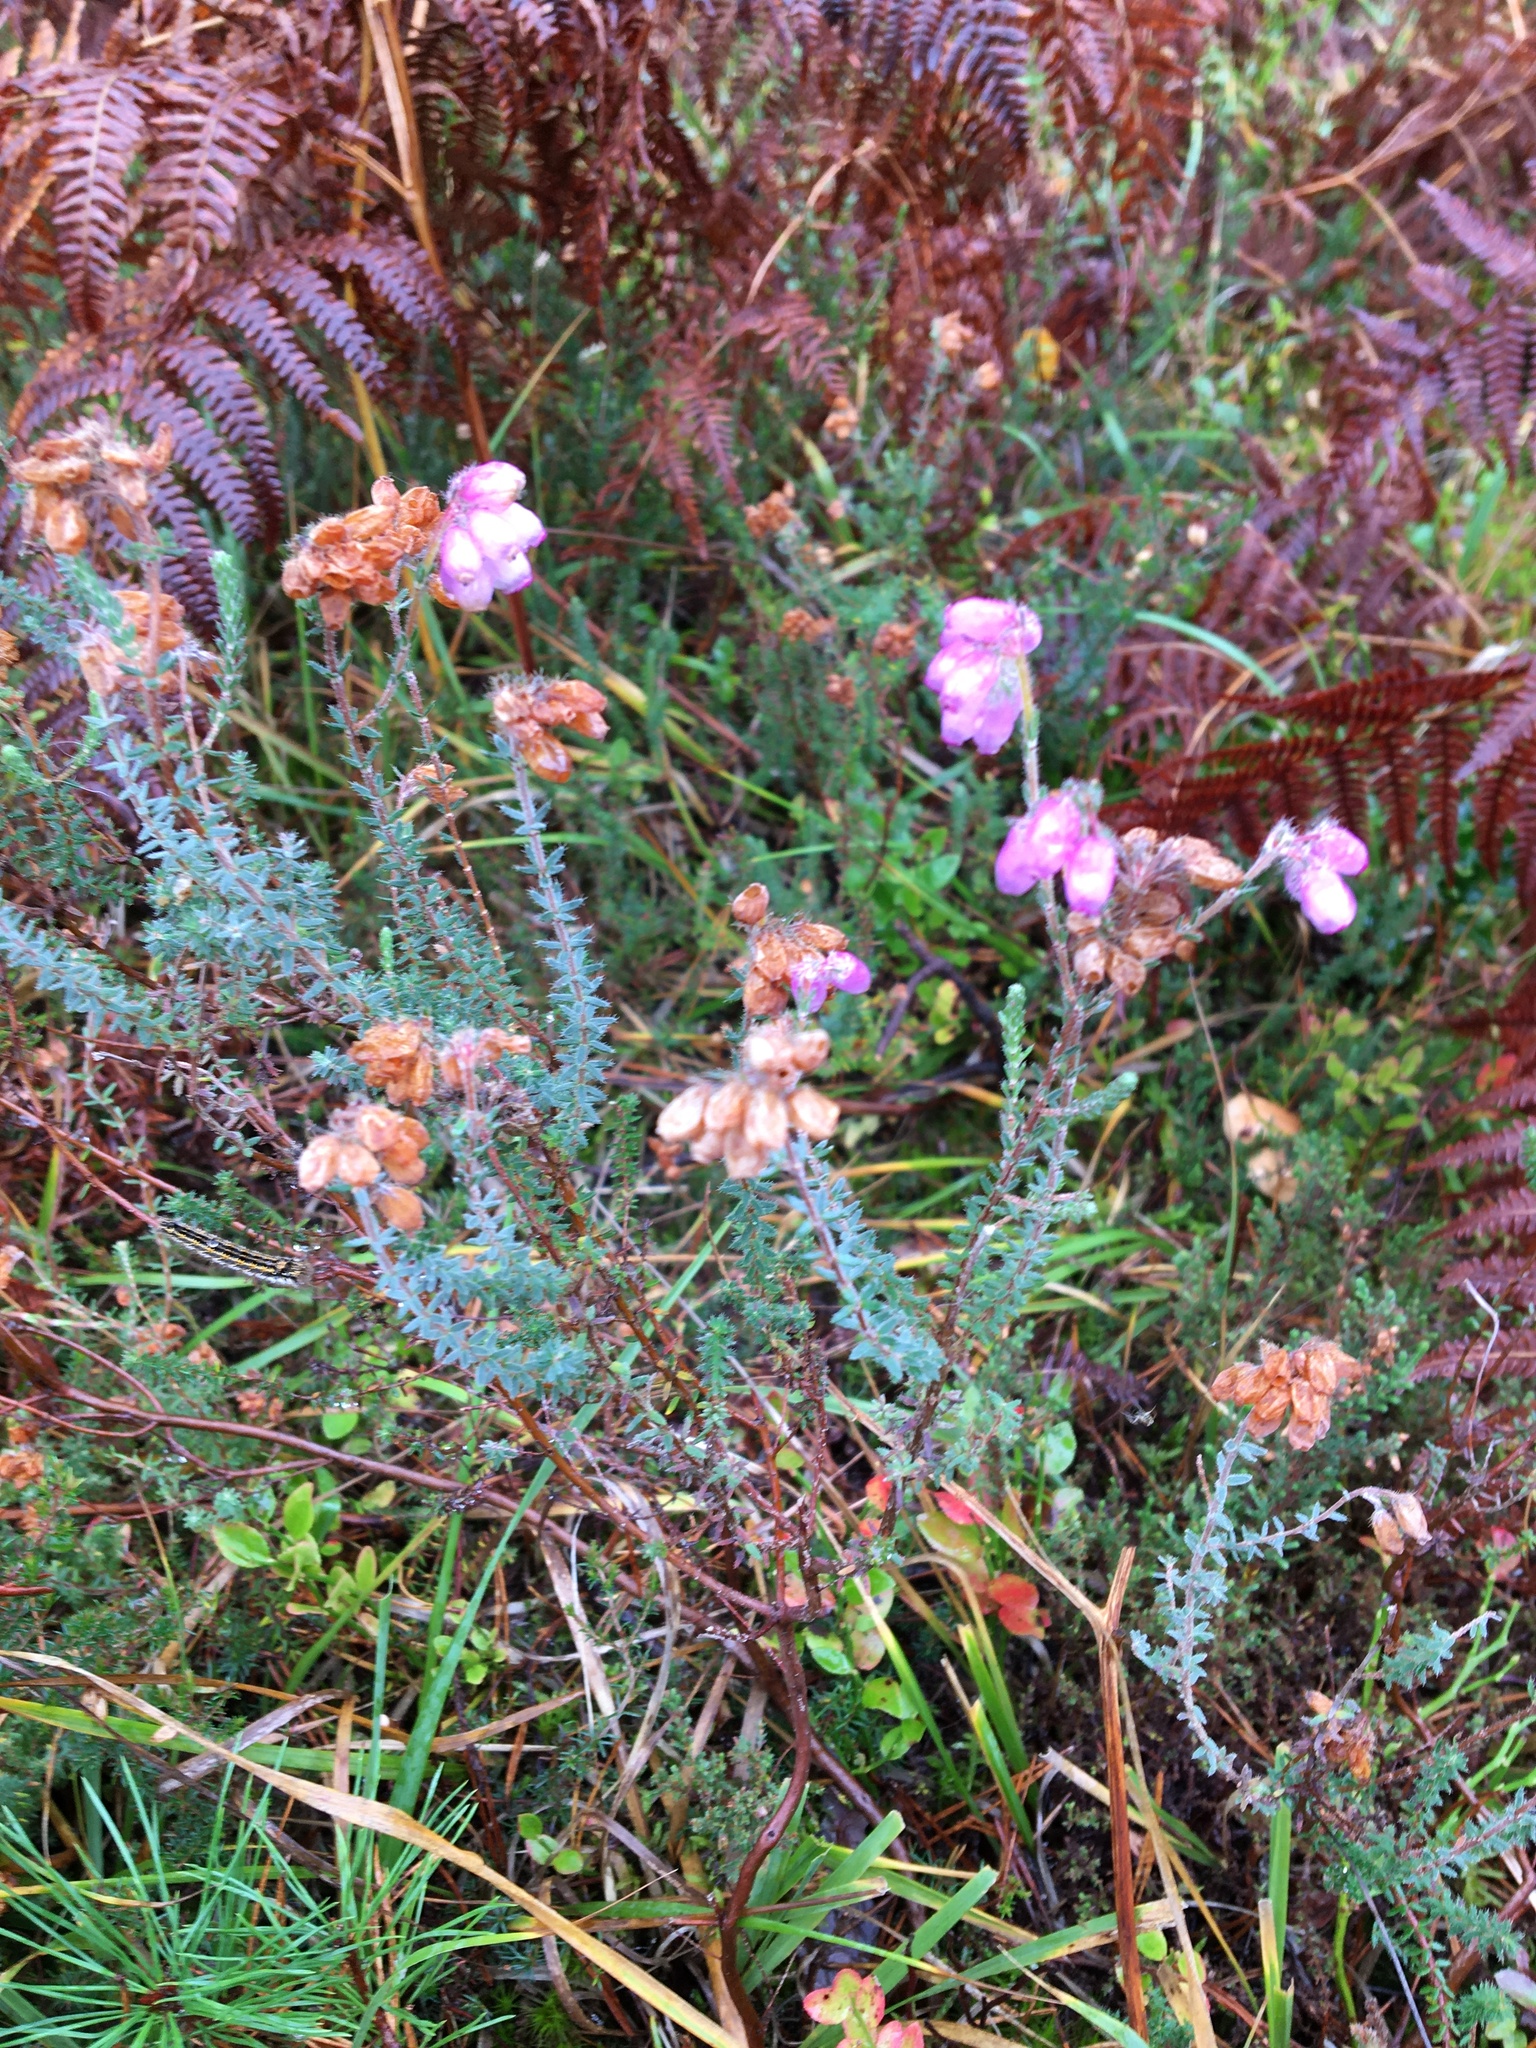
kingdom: Plantae
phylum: Tracheophyta
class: Magnoliopsida
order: Ericales
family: Ericaceae
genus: Erica
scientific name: Erica tetralix
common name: Cross-leaved heath
